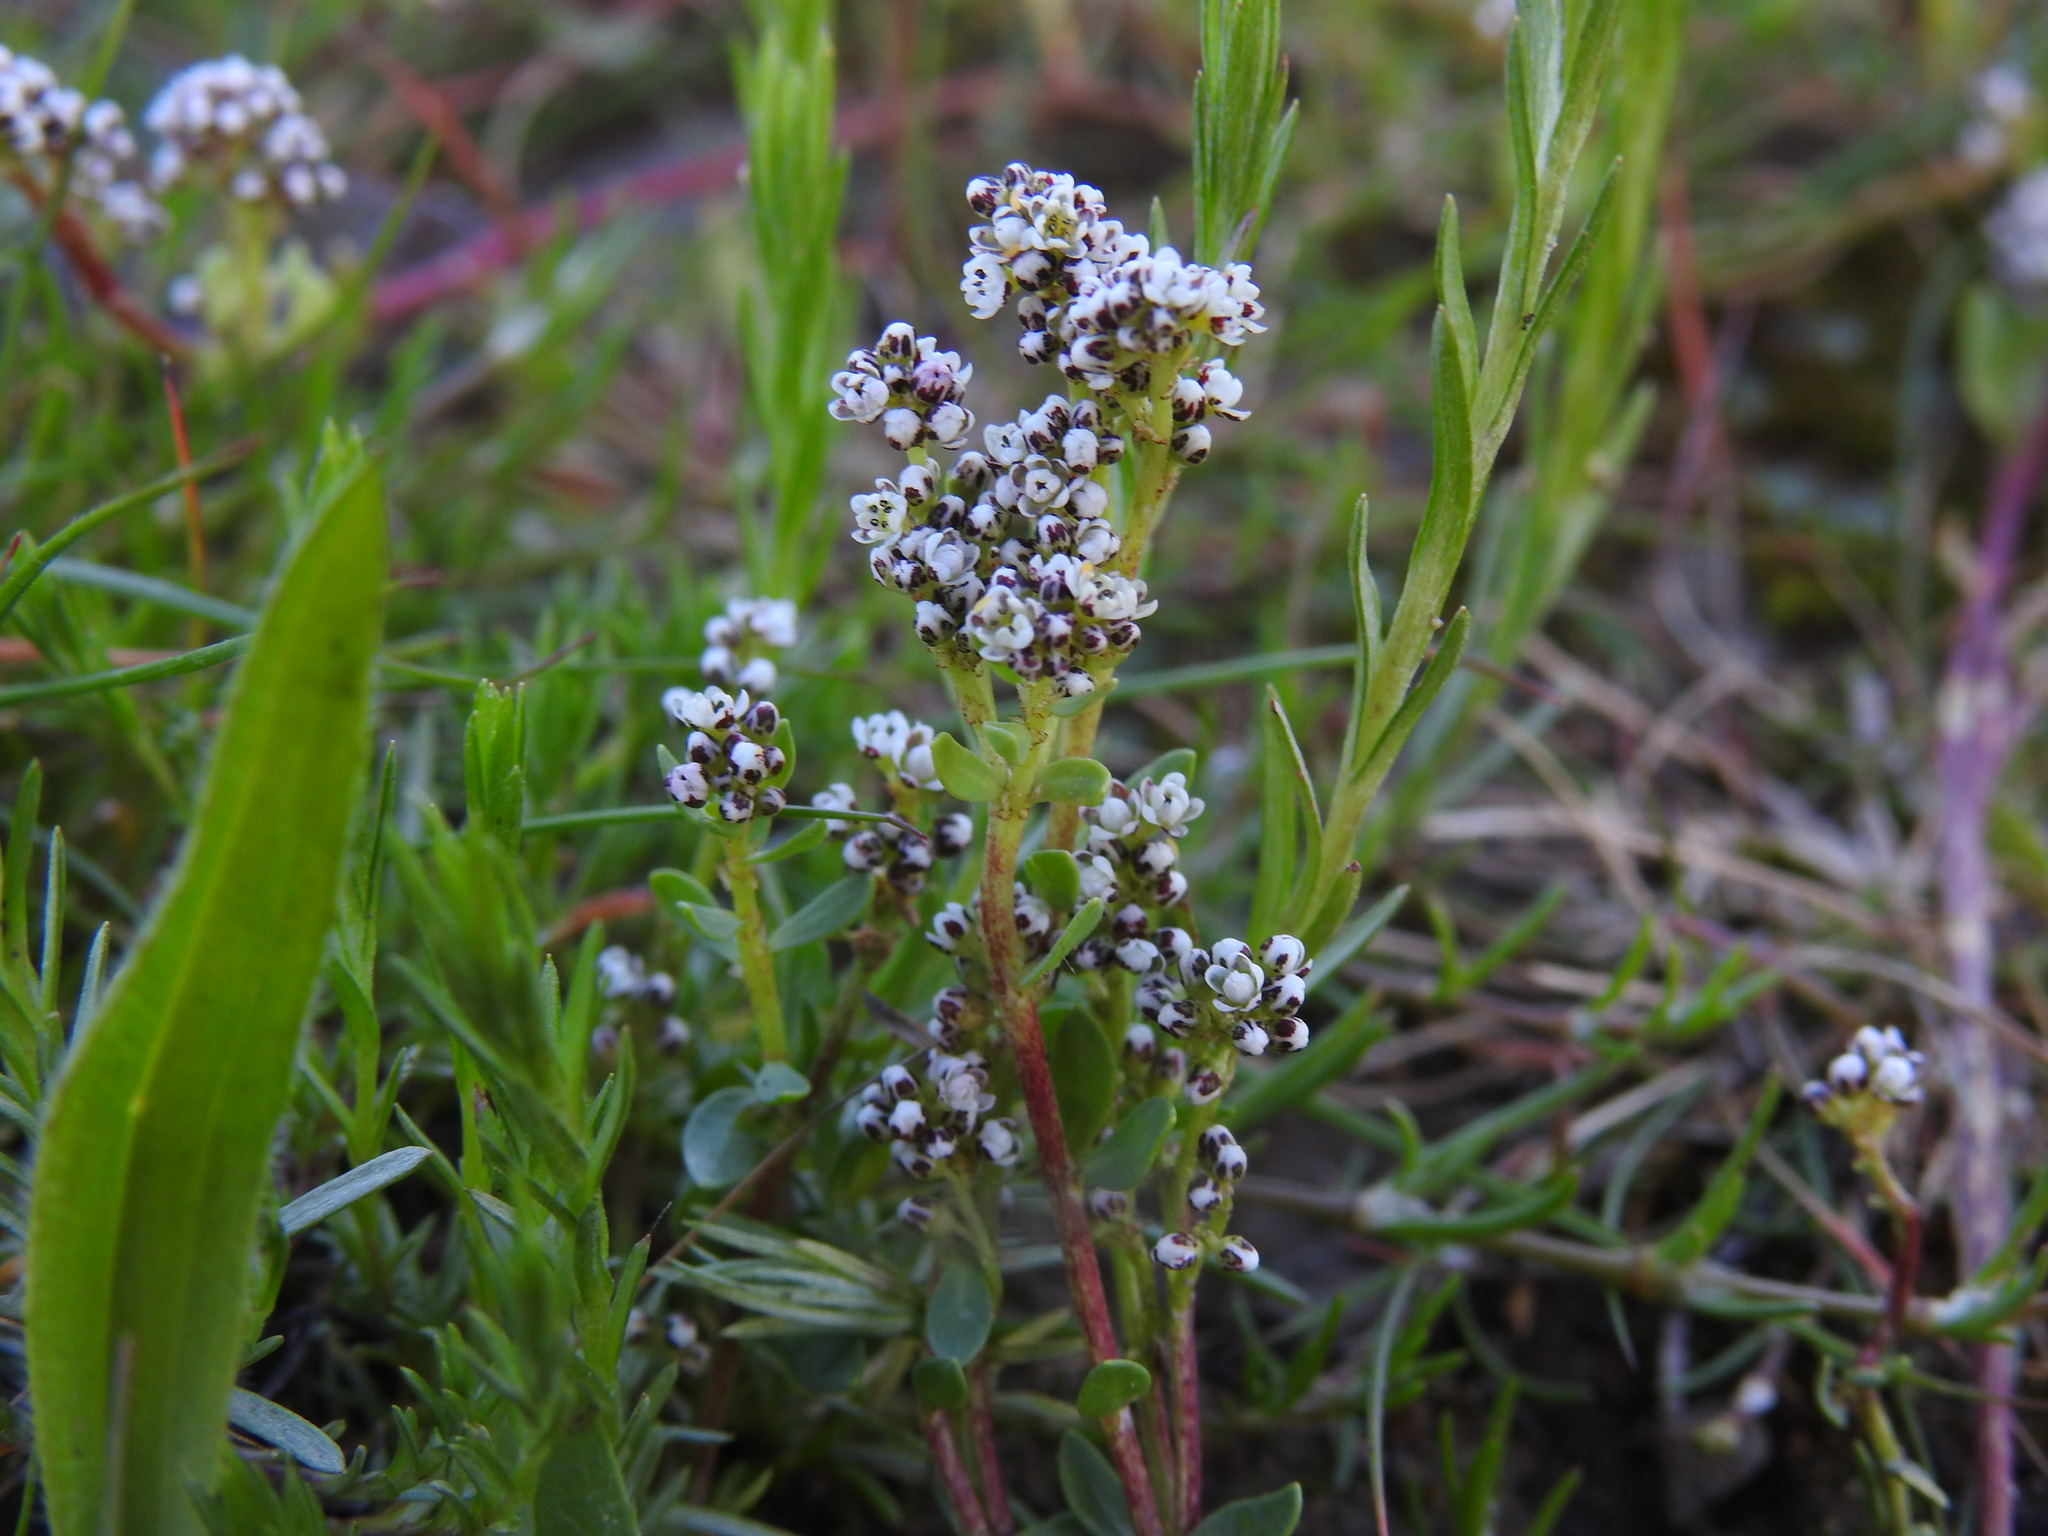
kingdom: Plantae
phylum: Tracheophyta
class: Magnoliopsida
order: Caryophyllales
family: Caryophyllaceae
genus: Corrigiola
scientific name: Corrigiola litoralis
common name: Strapwort
